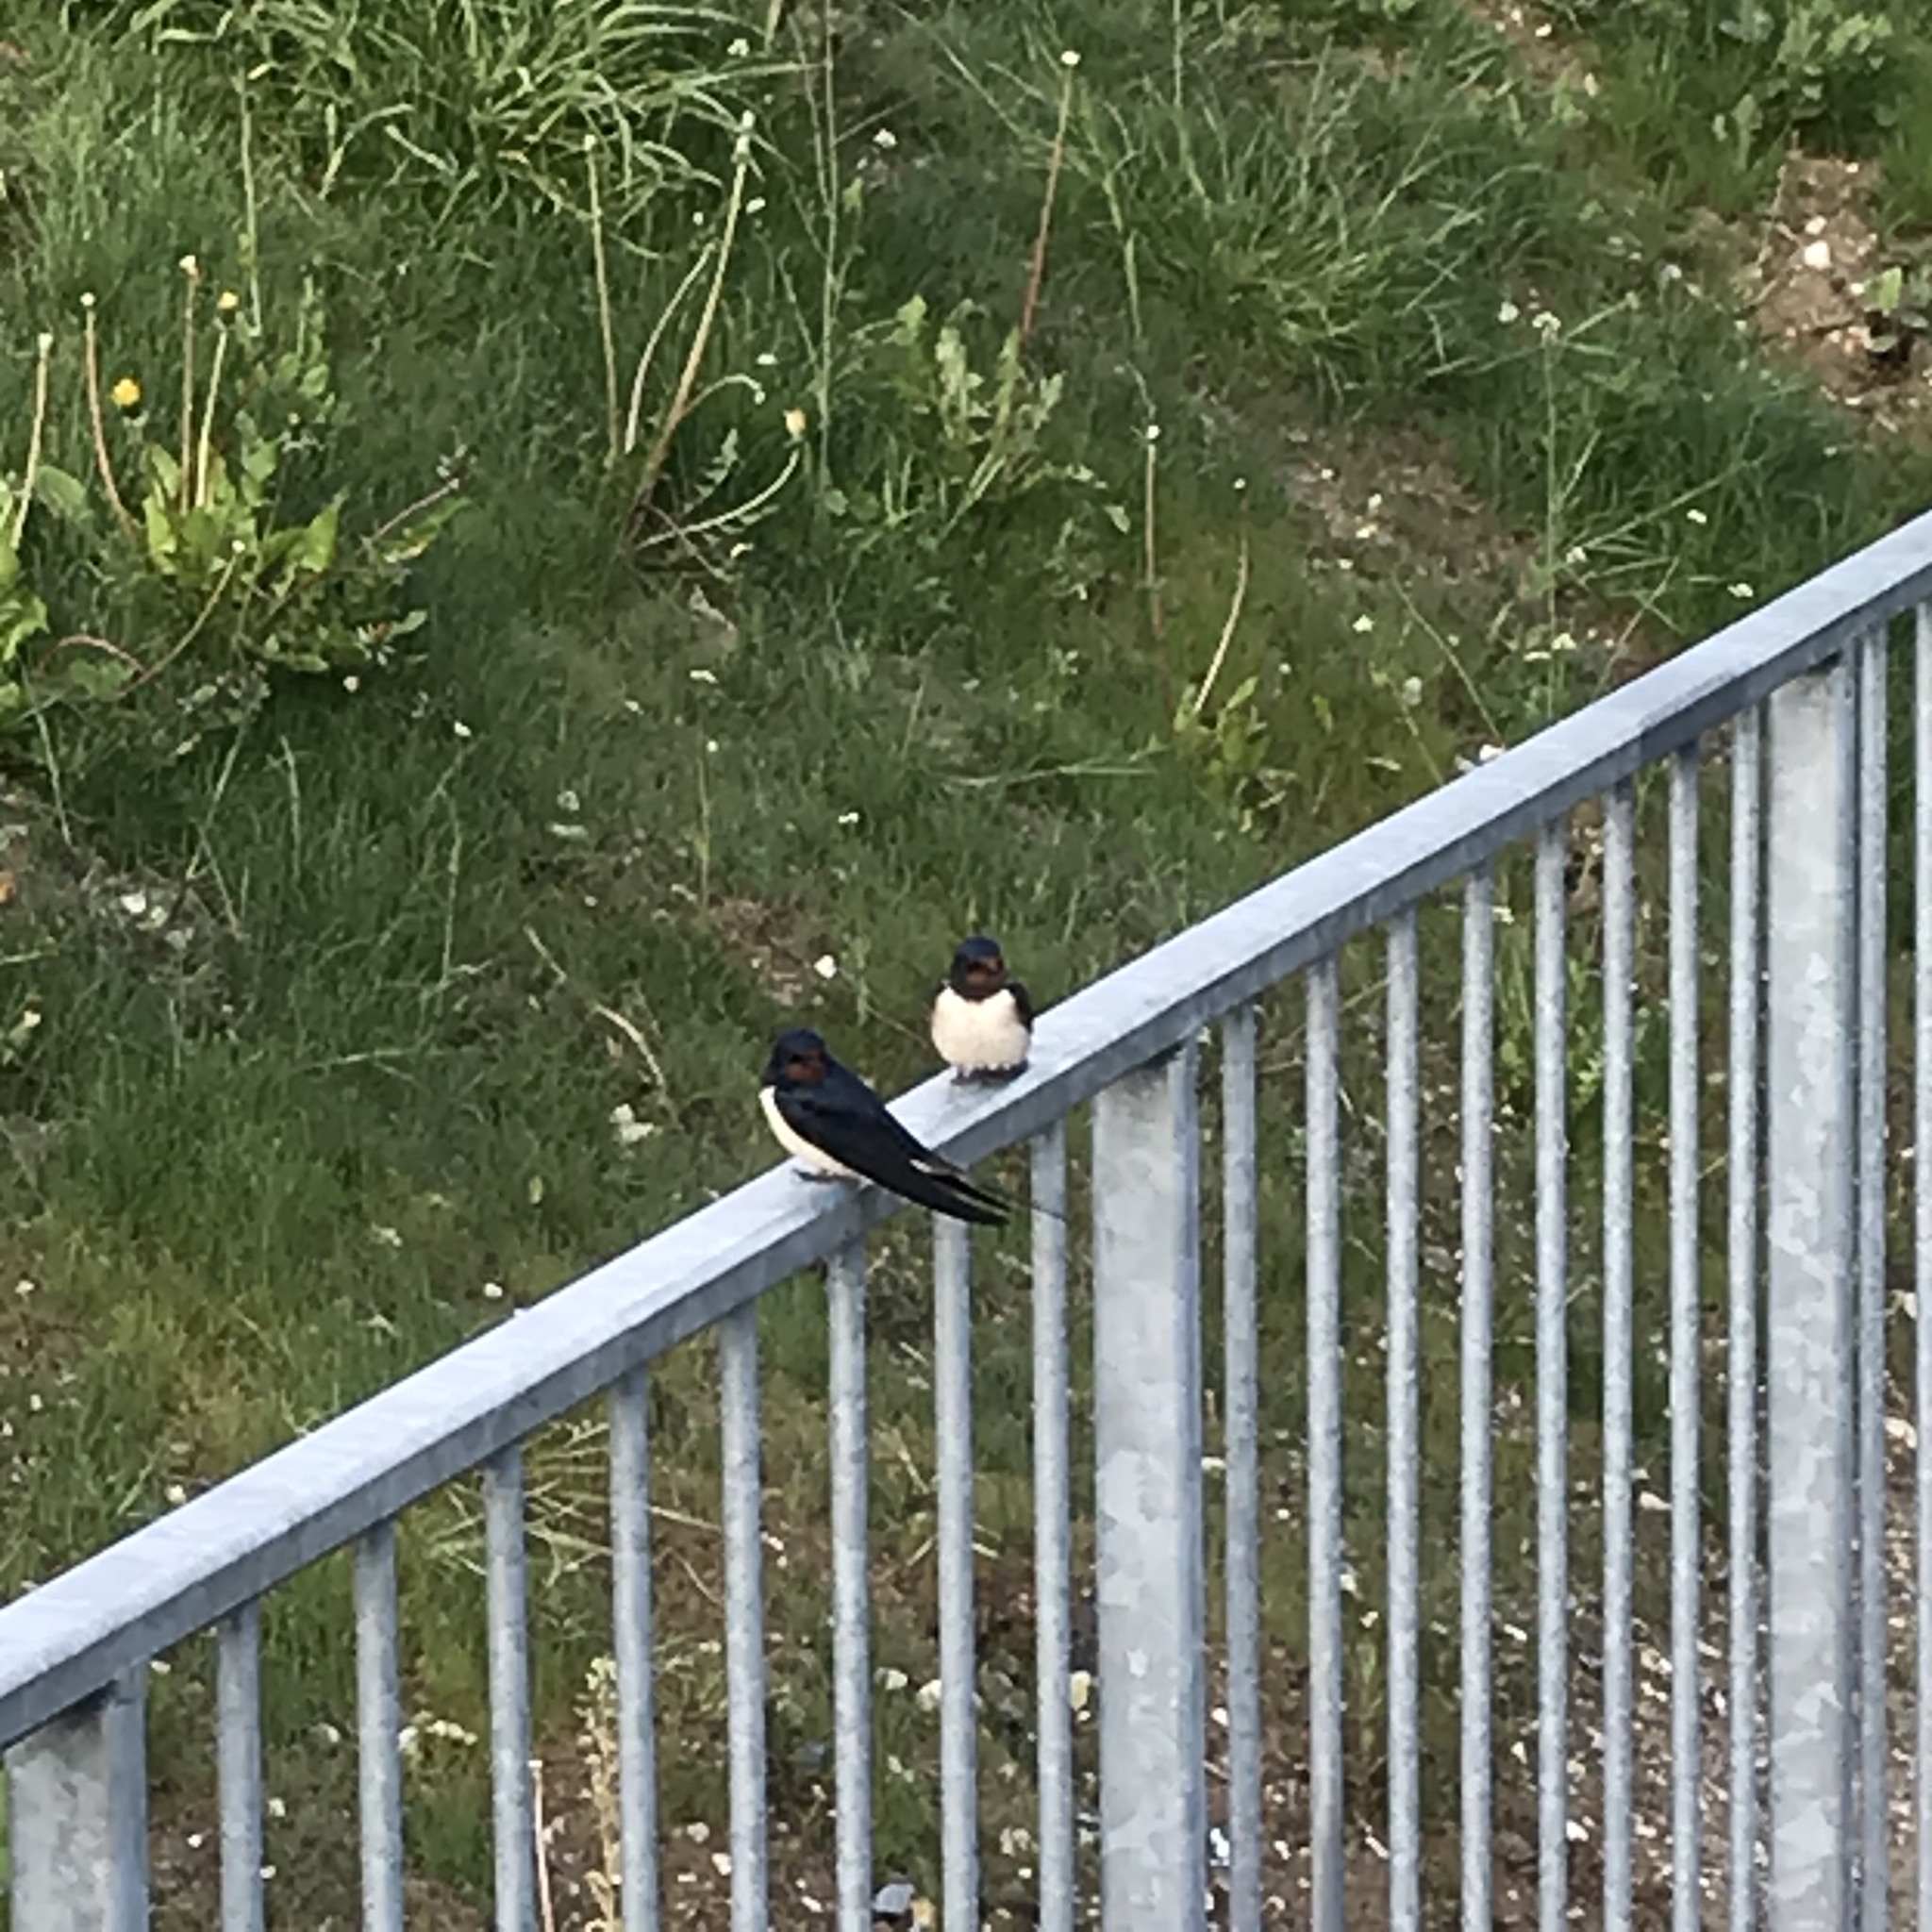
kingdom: Animalia
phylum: Chordata
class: Aves
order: Passeriformes
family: Hirundinidae
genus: Hirundo
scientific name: Hirundo rustica
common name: Barn swallow
